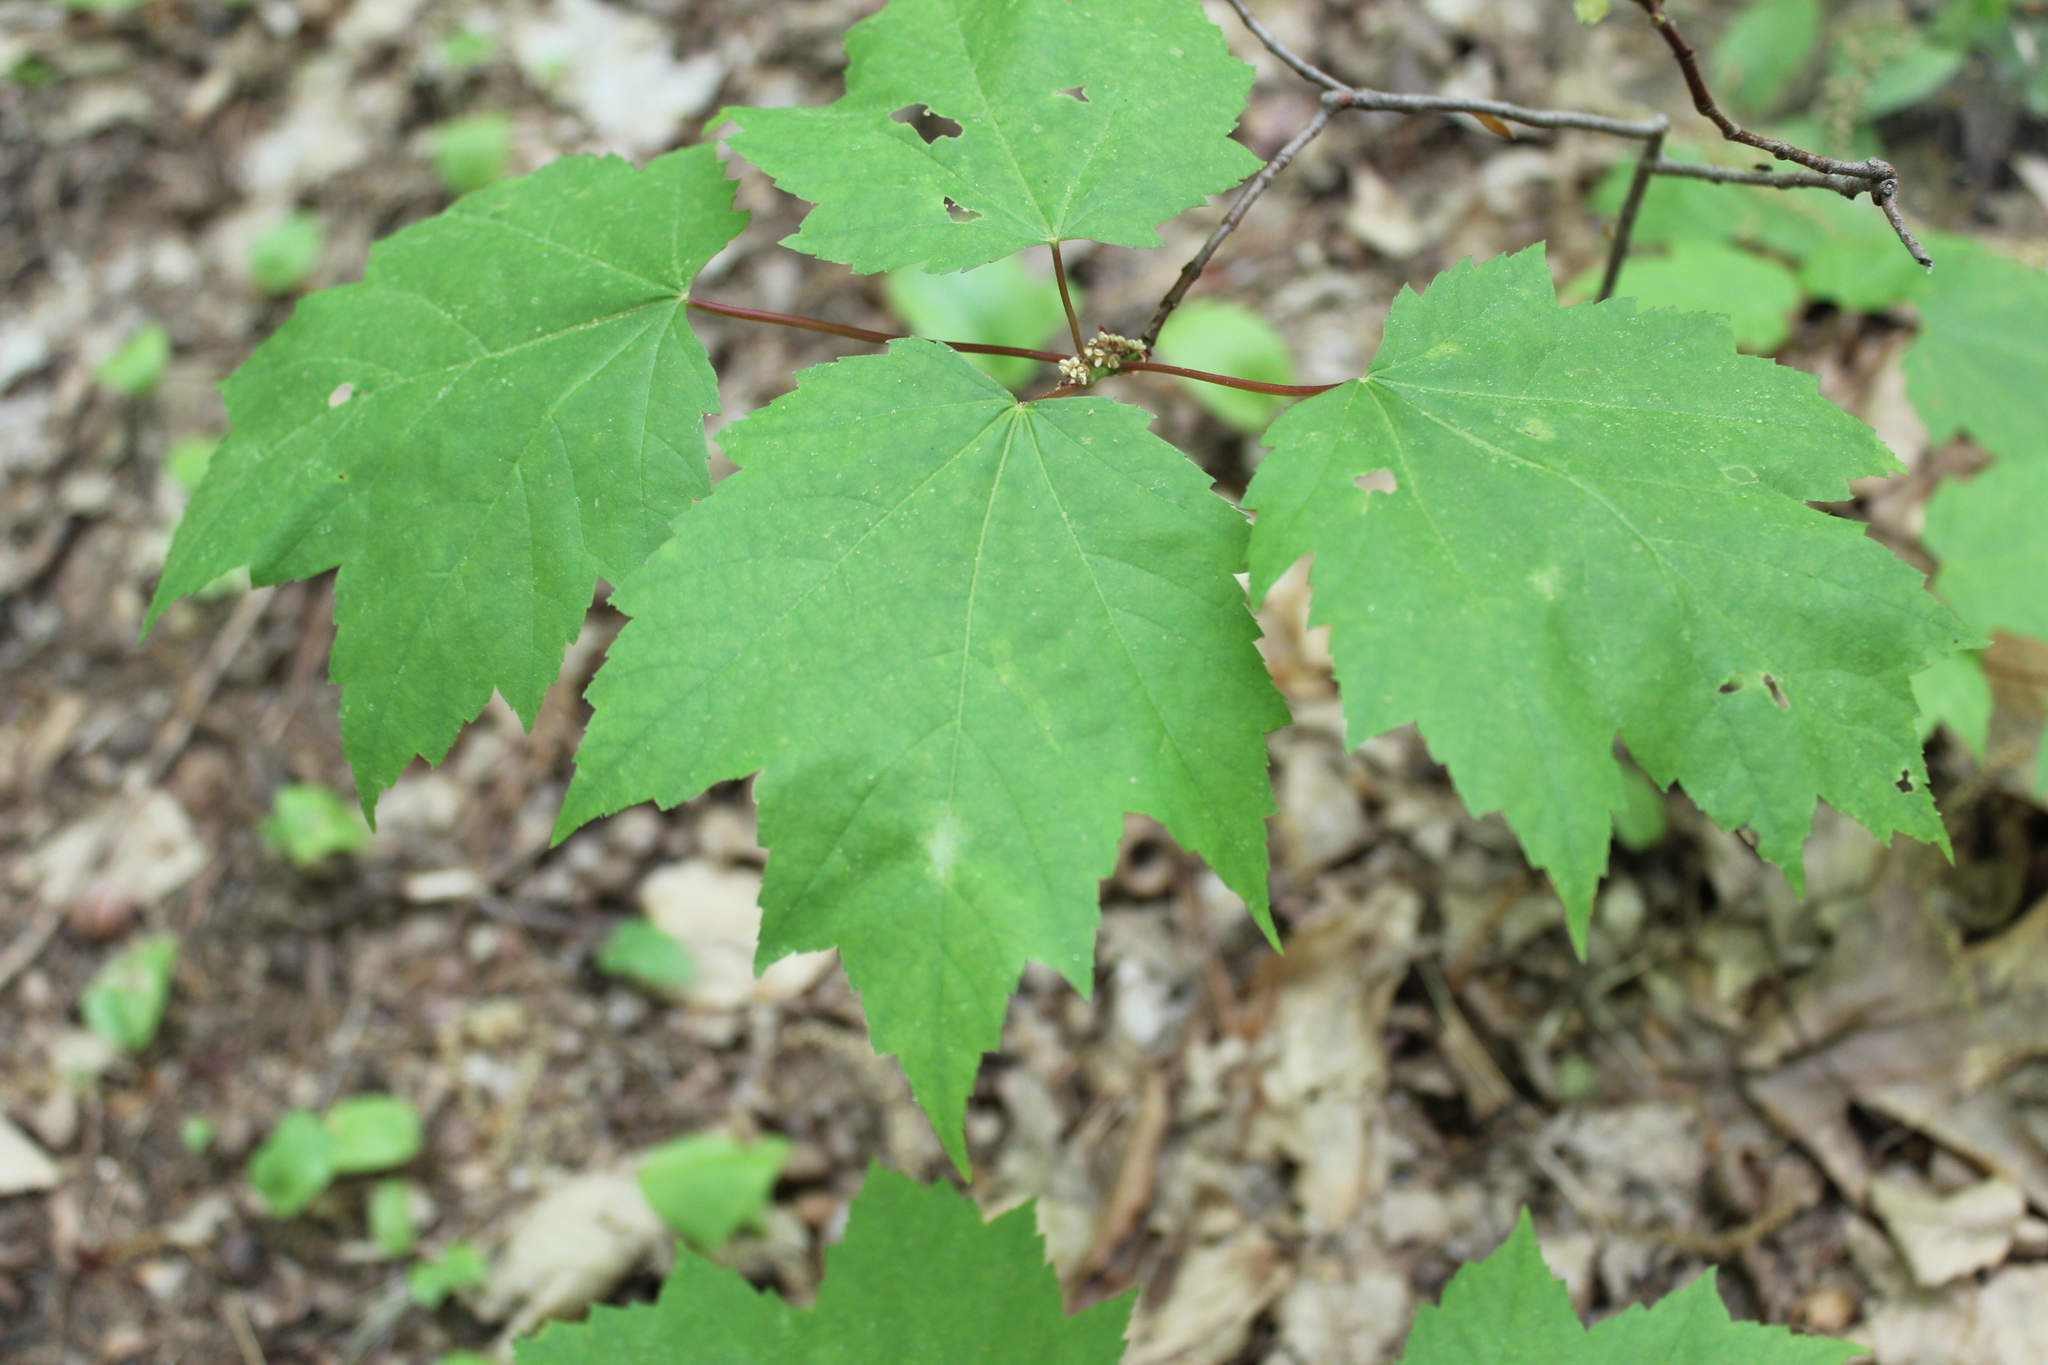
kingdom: Plantae
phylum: Tracheophyta
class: Magnoliopsida
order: Sapindales
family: Sapindaceae
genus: Acer
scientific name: Acer rubrum
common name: Red maple
